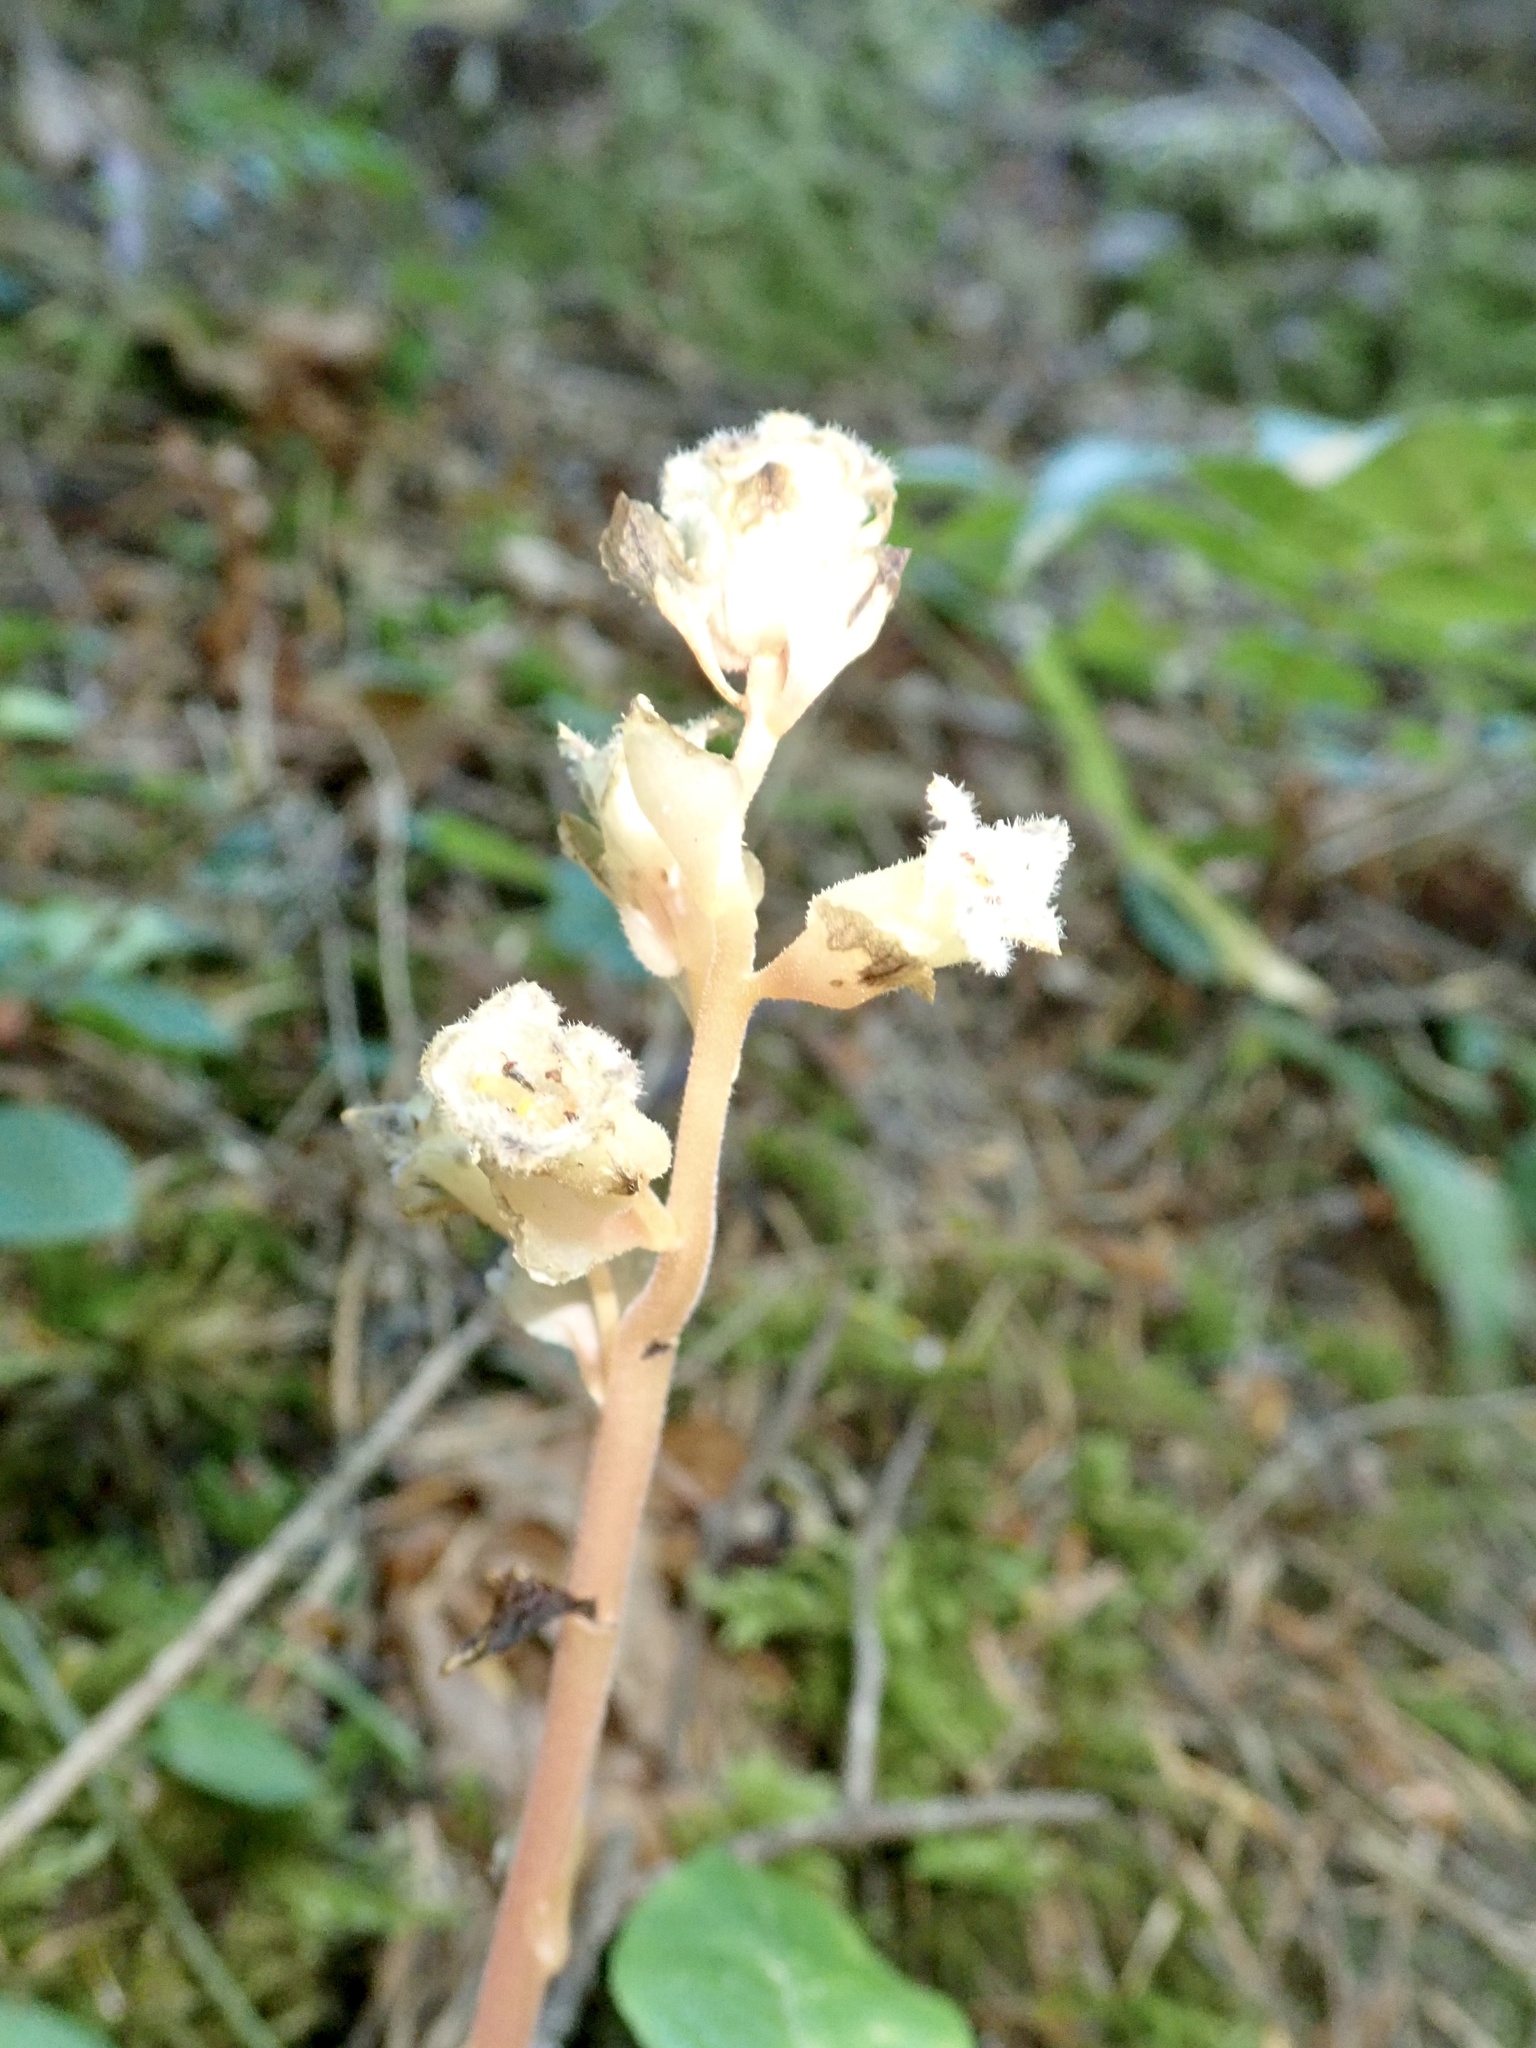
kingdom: Plantae
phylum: Tracheophyta
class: Magnoliopsida
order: Ericales
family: Ericaceae
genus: Hypopitys
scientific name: Hypopitys monotropa
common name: Yellow bird's-nest
